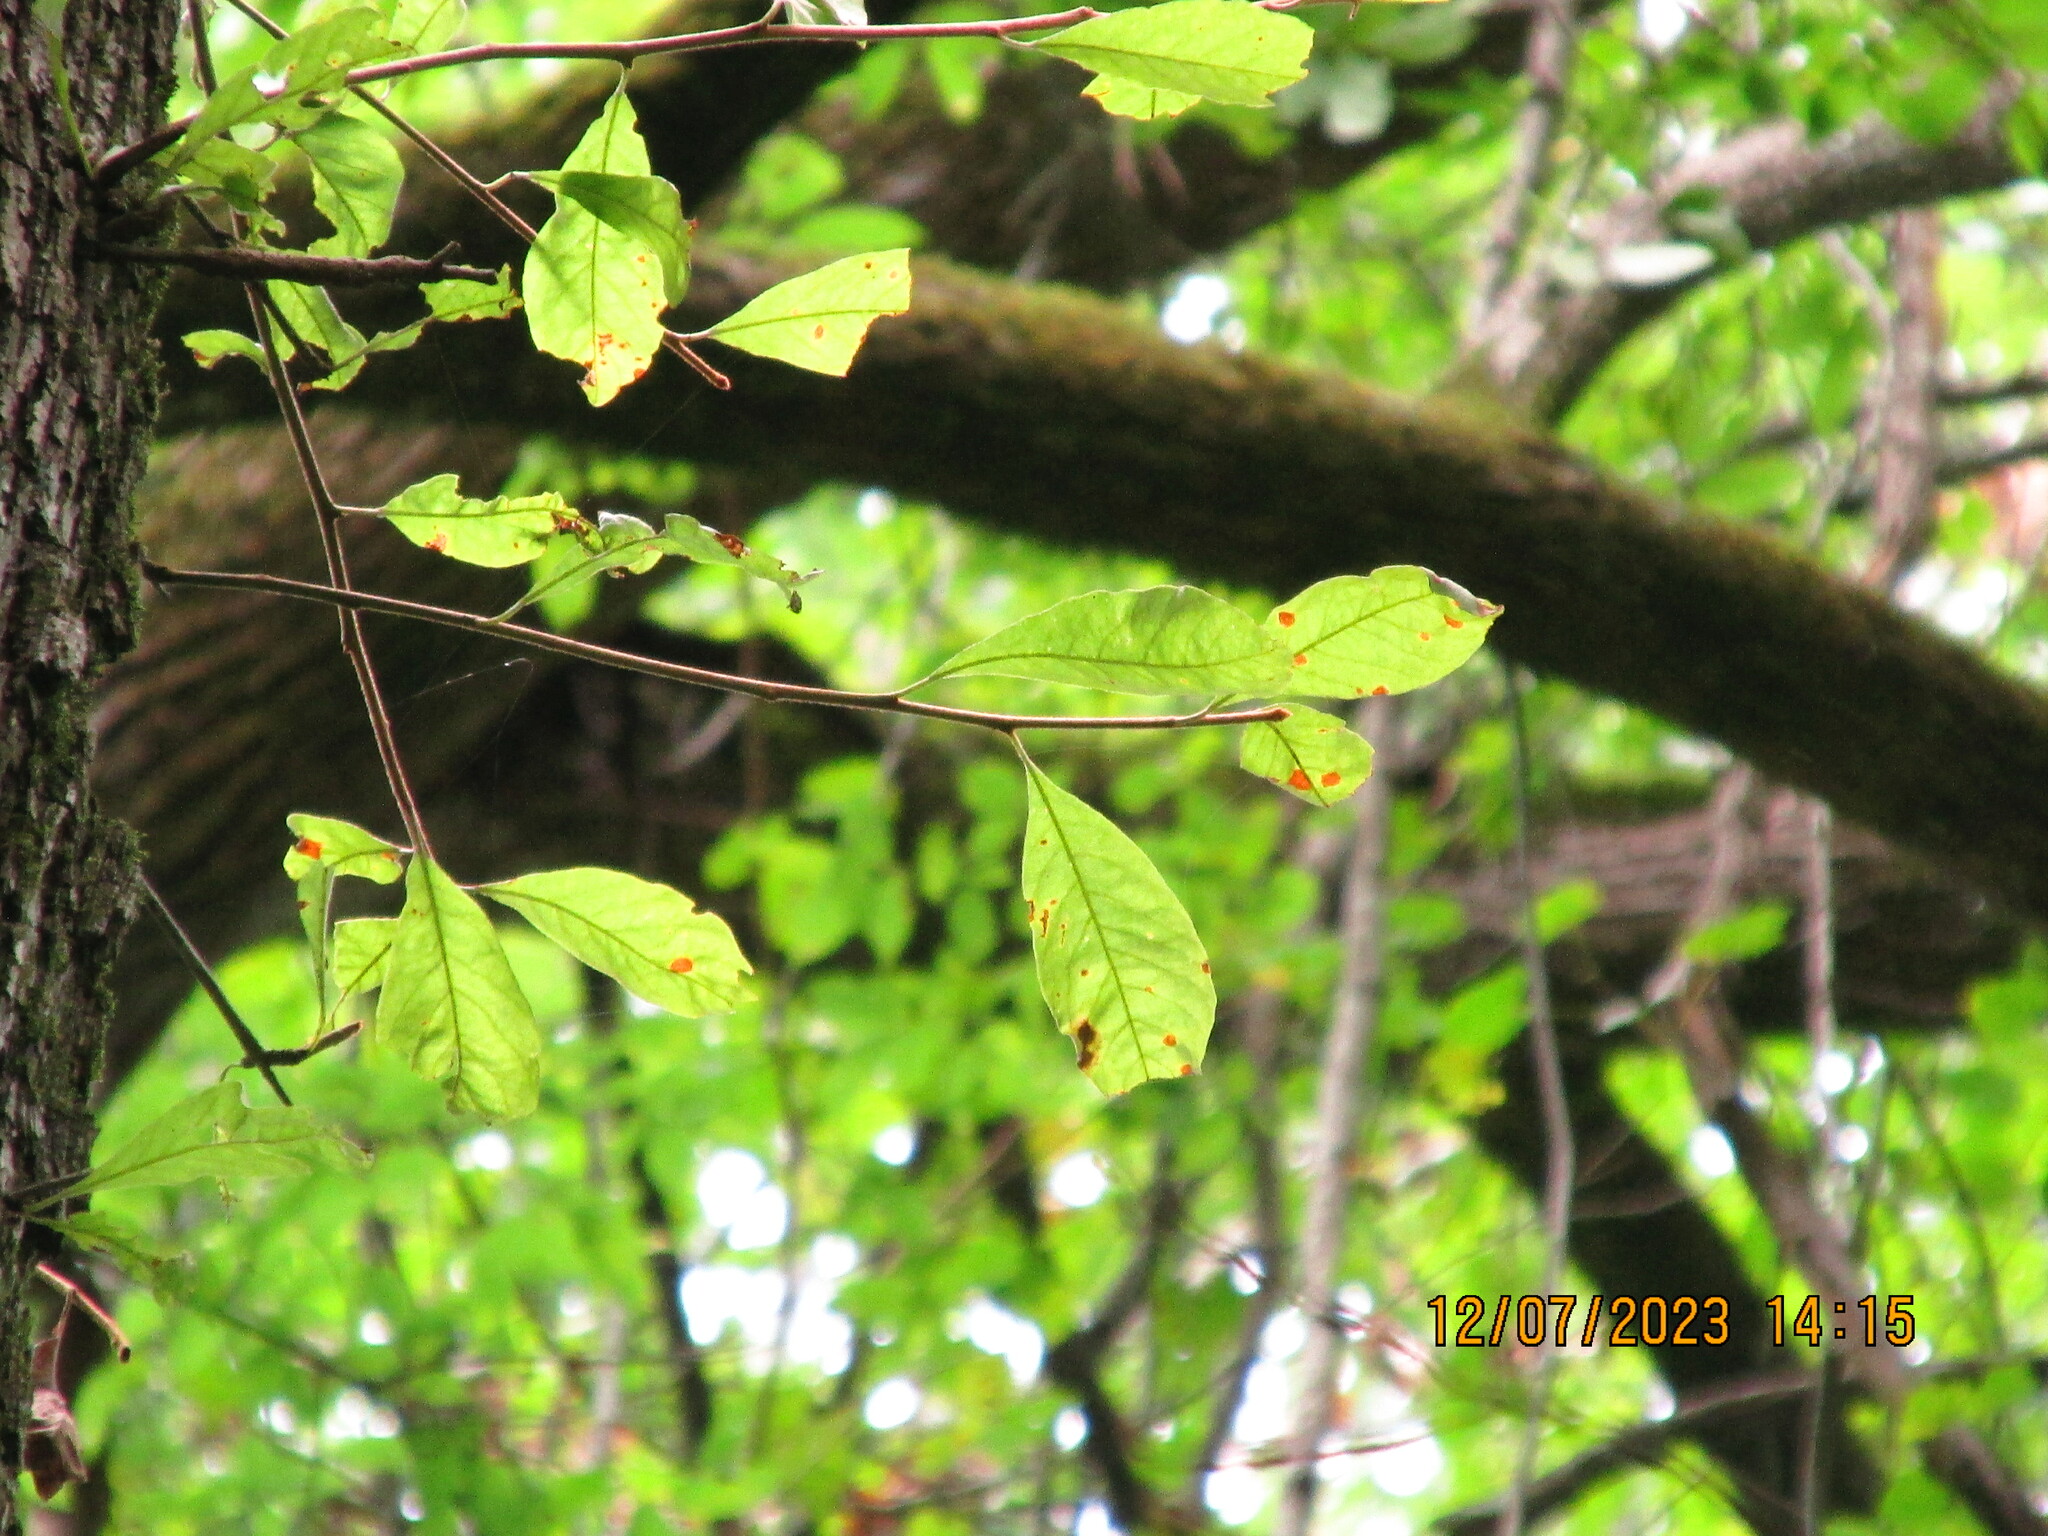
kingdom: Plantae
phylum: Tracheophyta
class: Magnoliopsida
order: Ericales
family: Sapotaceae
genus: Sideroxylon
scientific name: Sideroxylon lanuginosum
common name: Chittamwood
